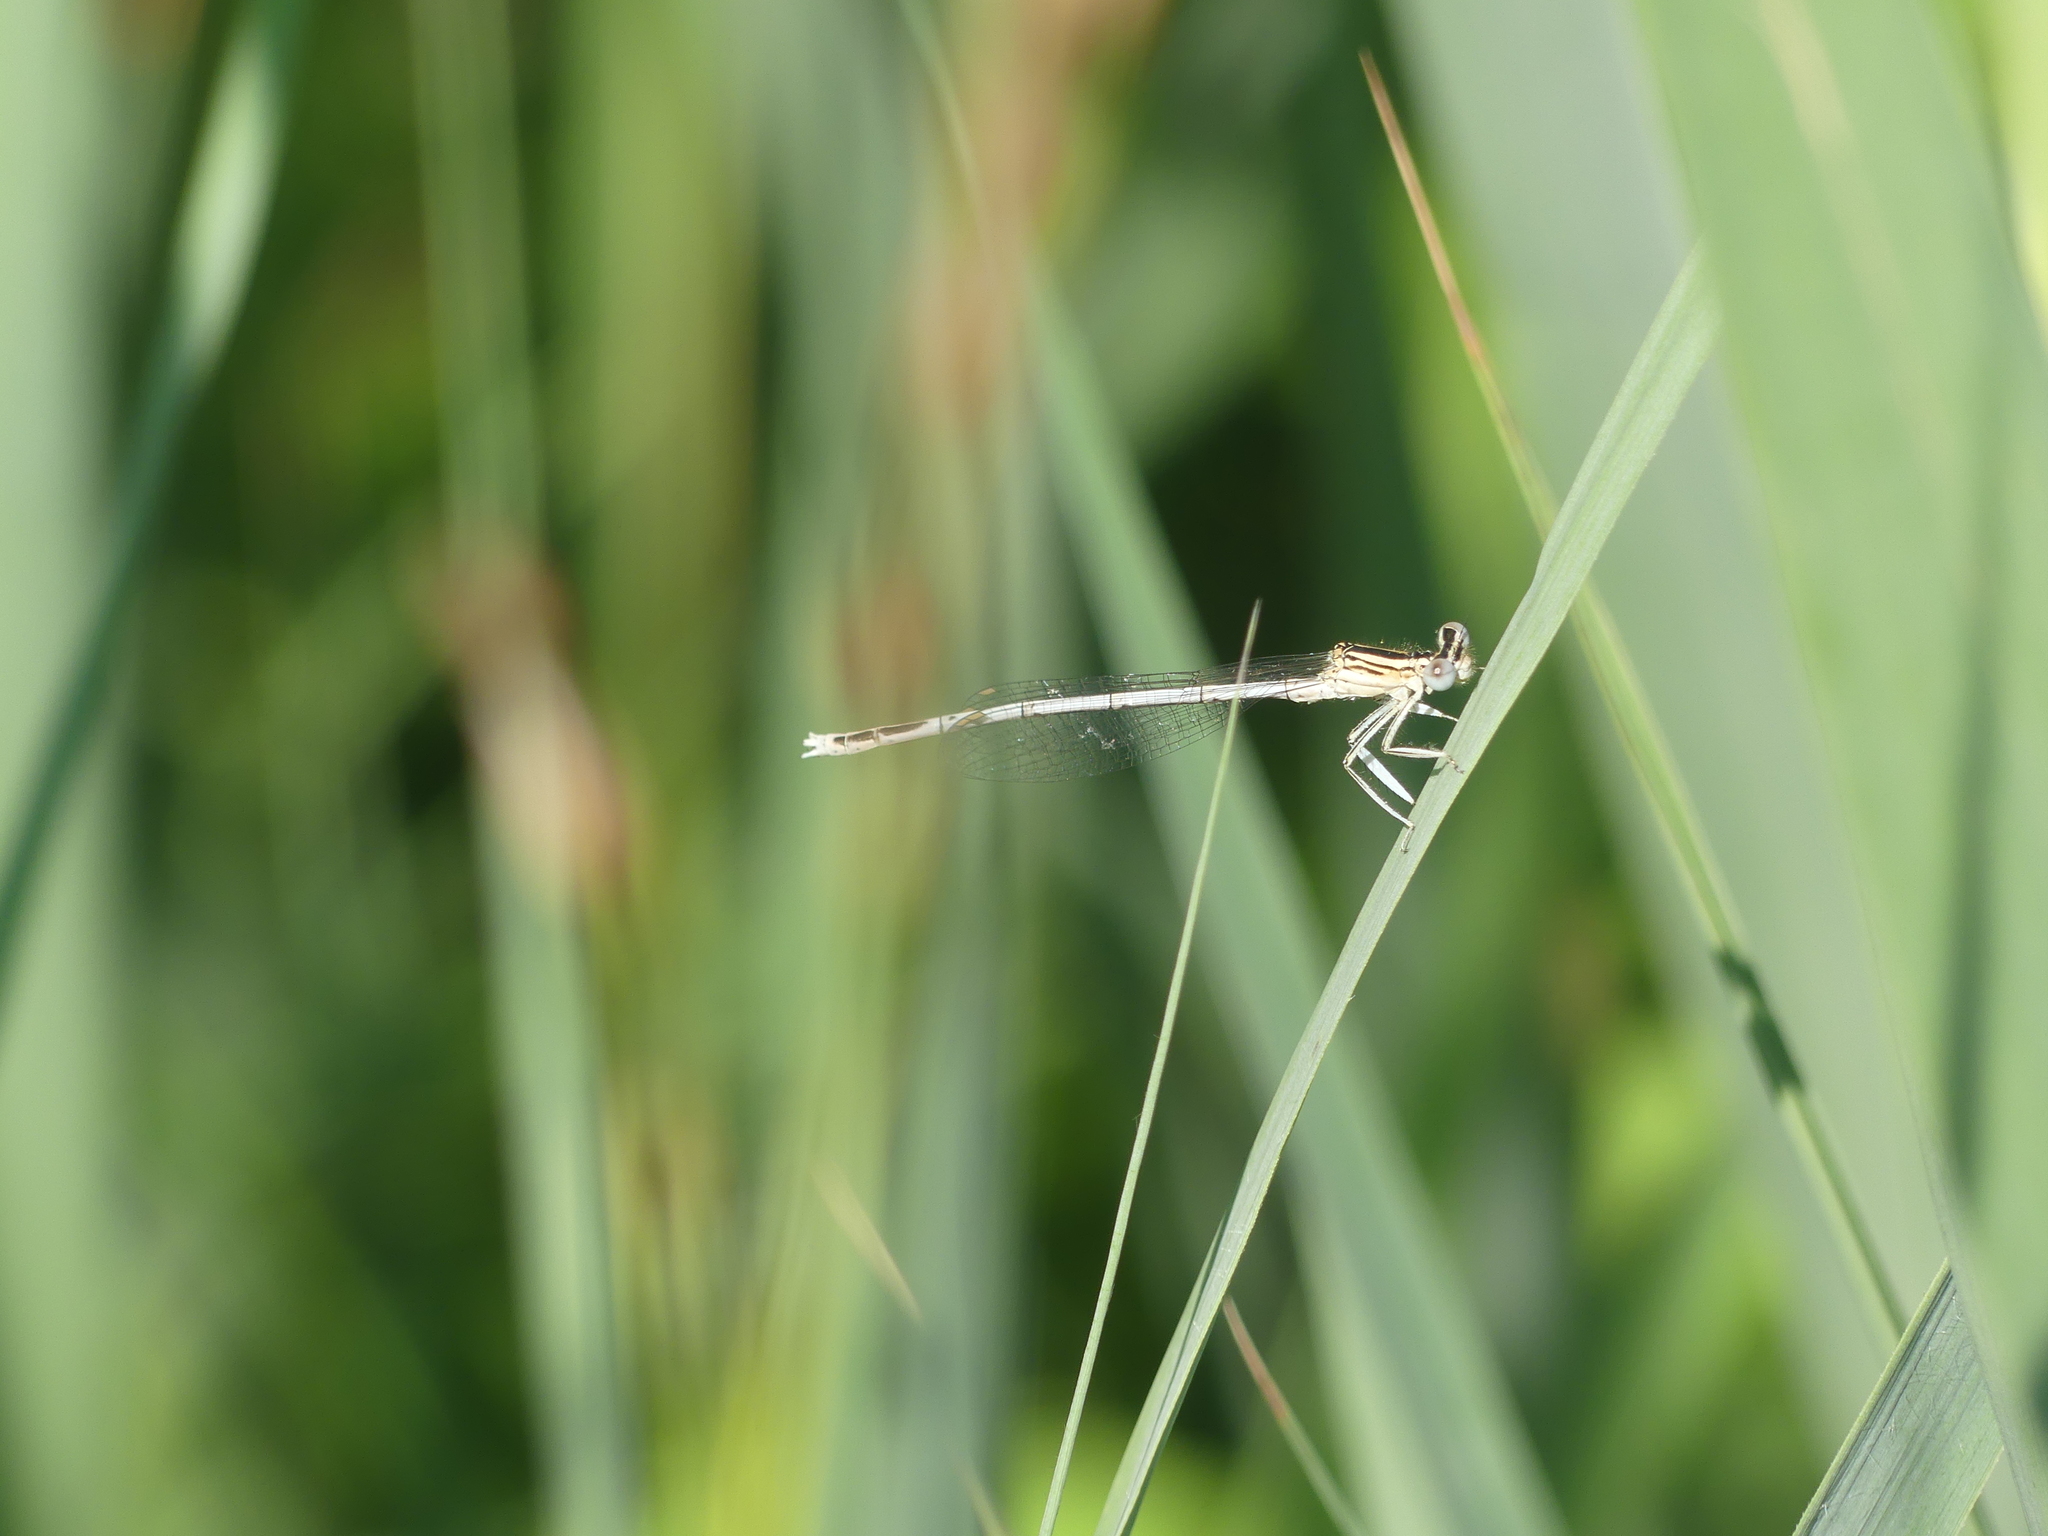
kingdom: Animalia
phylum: Arthropoda
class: Insecta
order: Odonata
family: Platycnemididae
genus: Platycnemis
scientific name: Platycnemis pennipes
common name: White-legged damselfly
